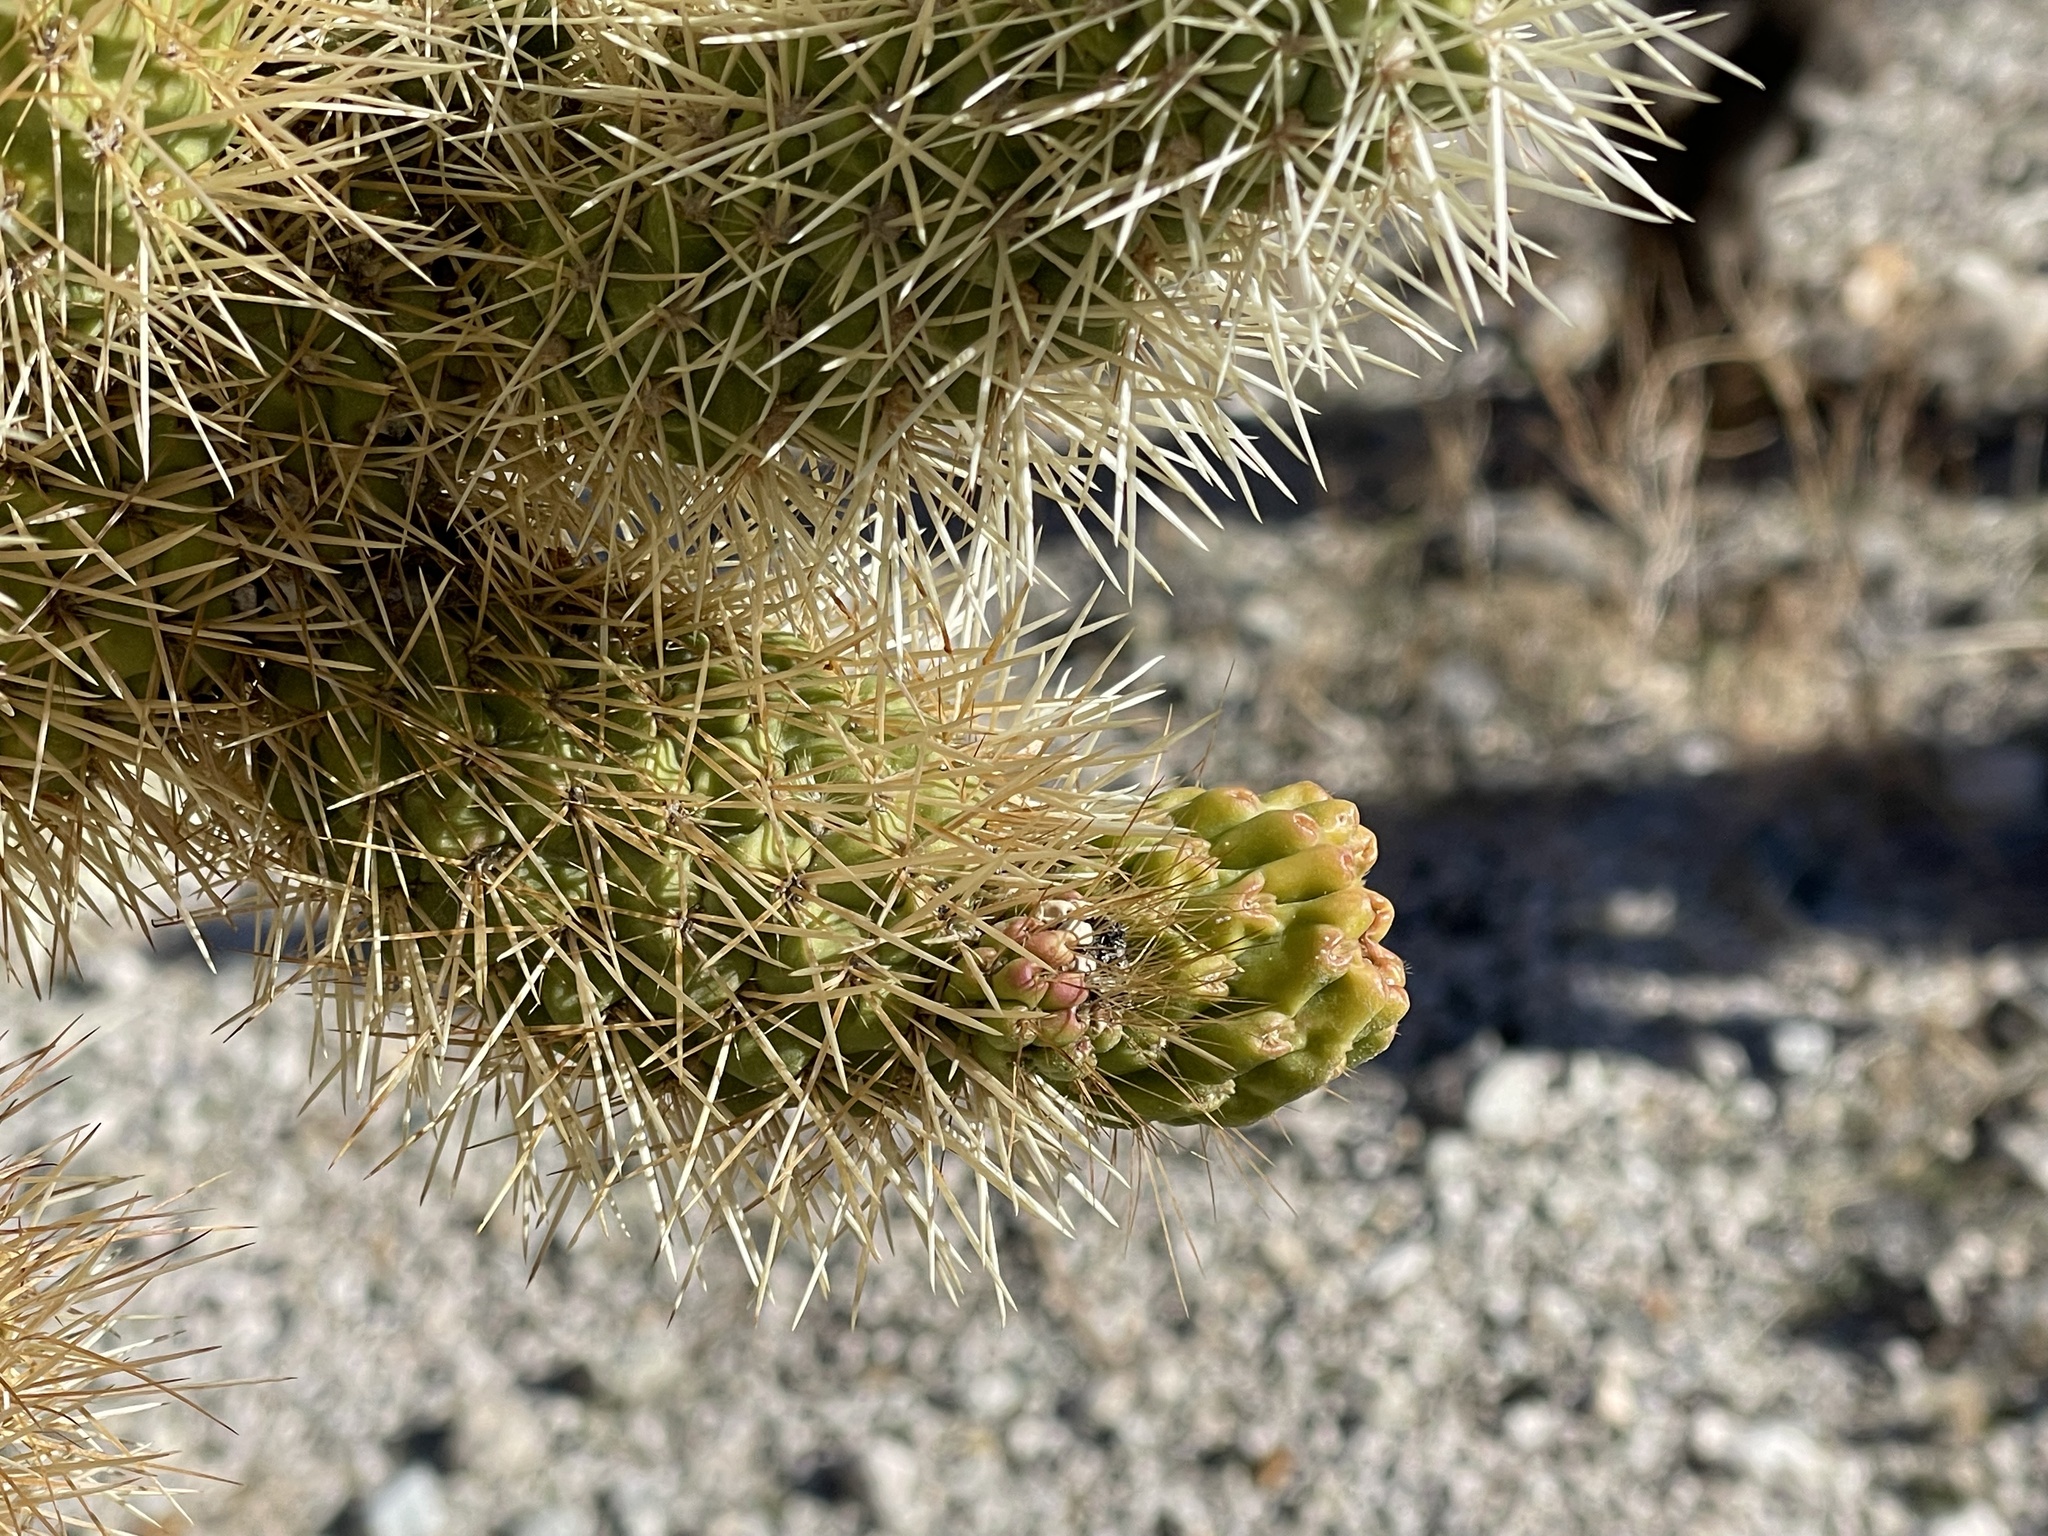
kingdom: Plantae
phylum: Tracheophyta
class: Magnoliopsida
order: Caryophyllales
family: Cactaceae
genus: Cylindropuntia
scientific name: Cylindropuntia fosbergii
